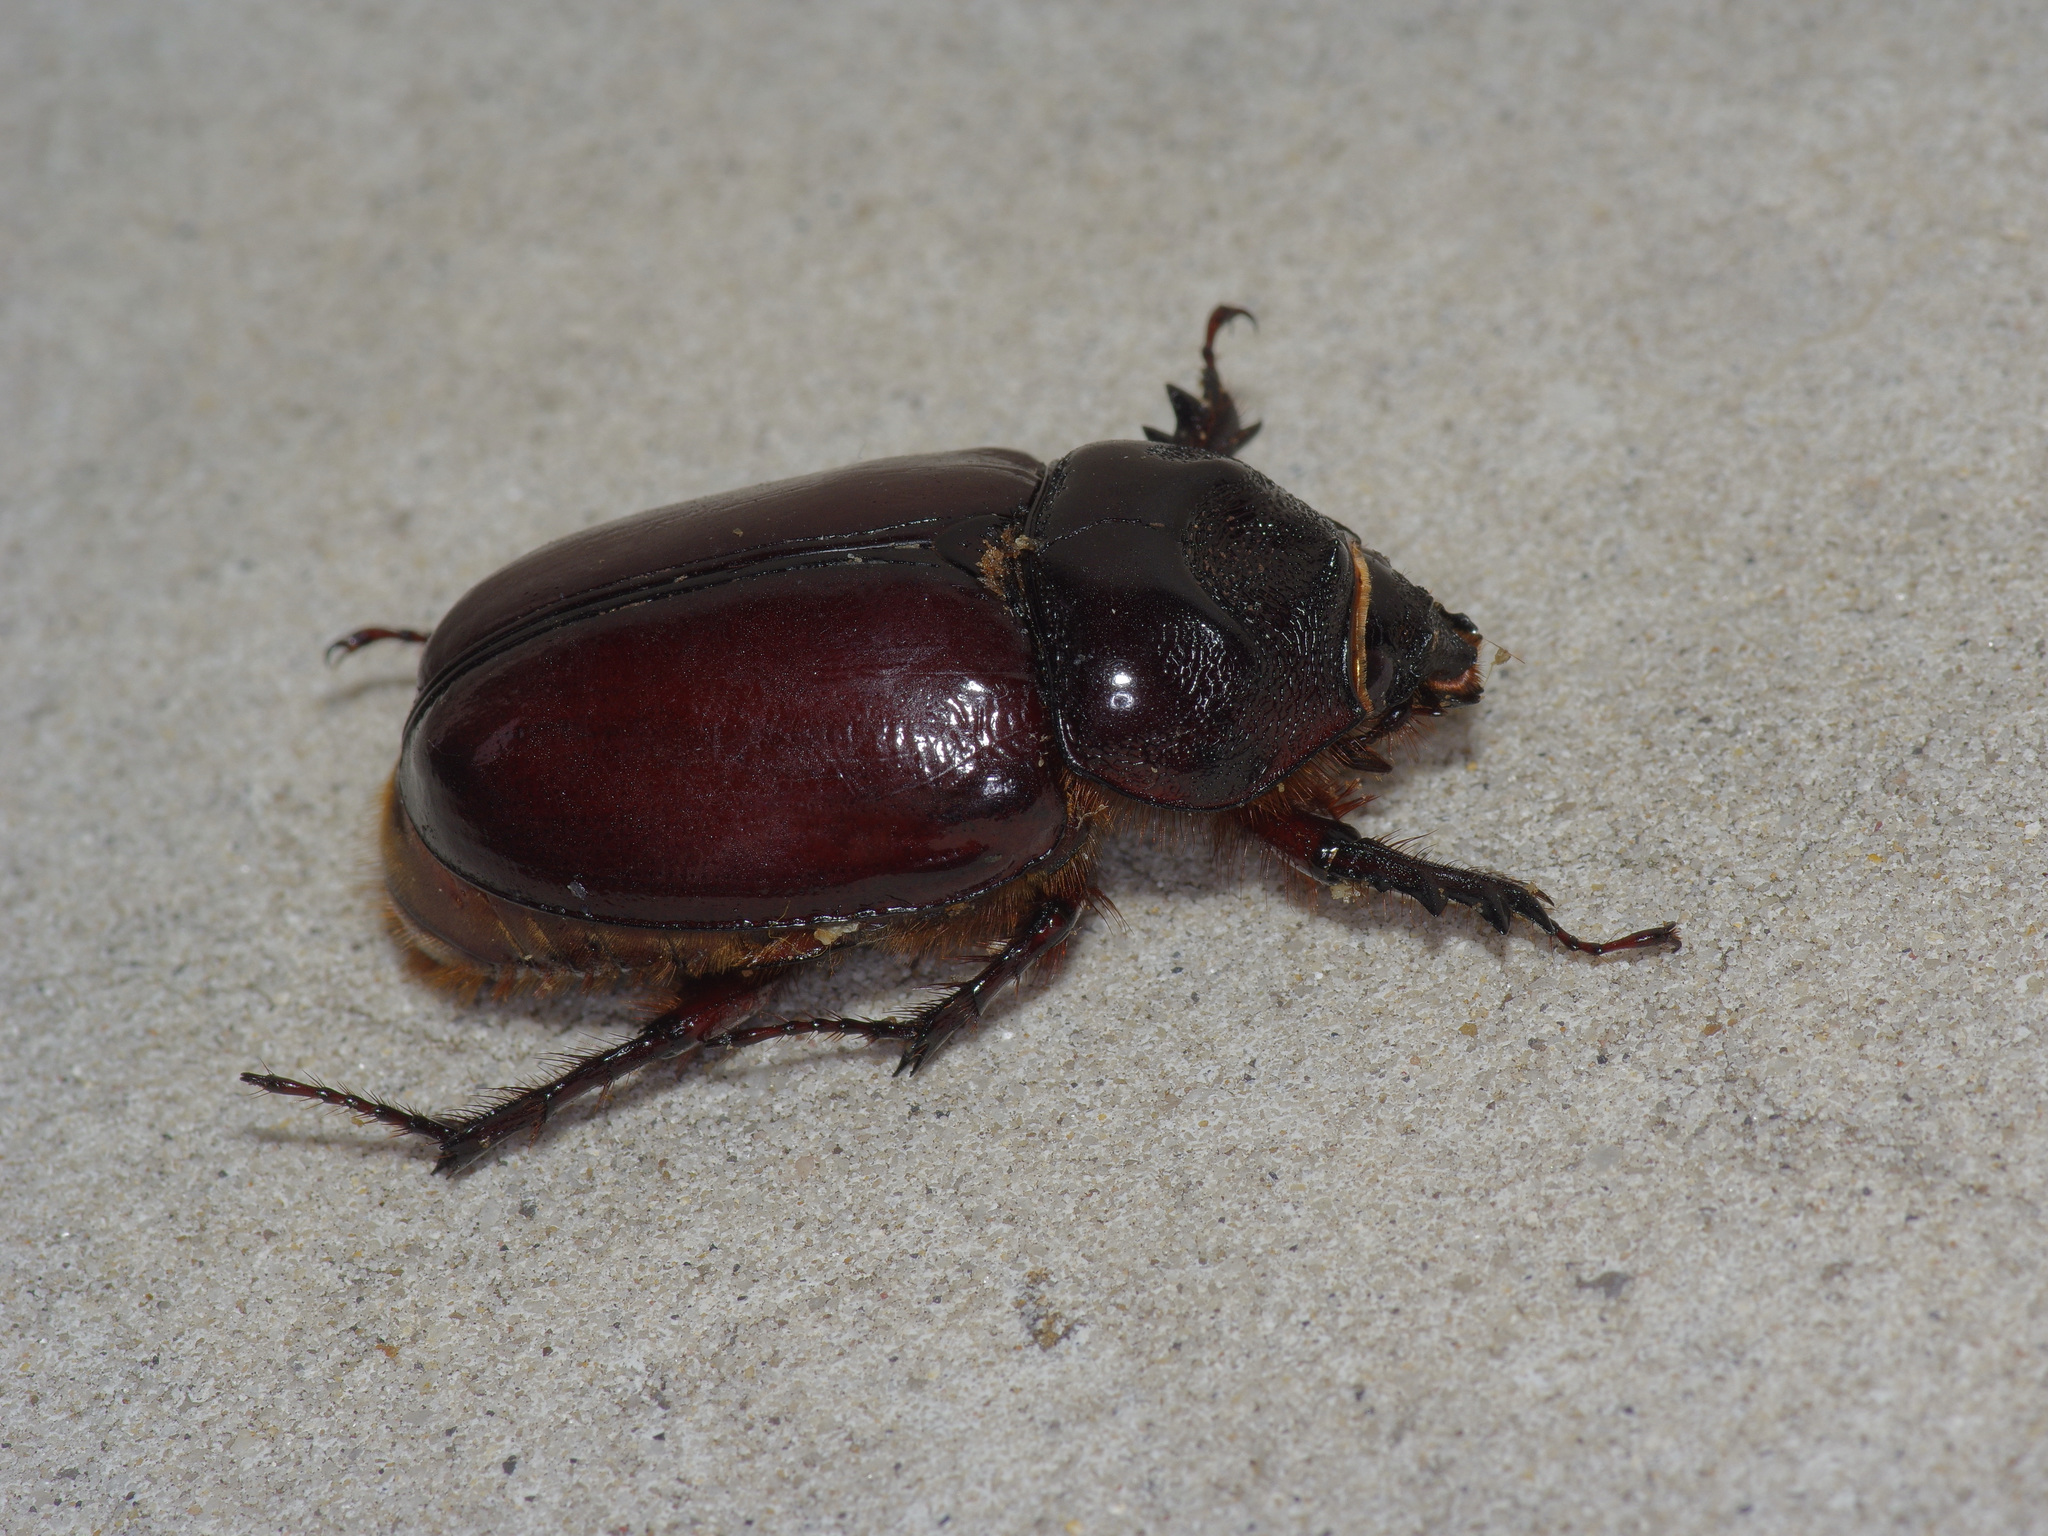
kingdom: Animalia
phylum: Arthropoda
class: Insecta
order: Coleoptera
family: Scarabaeidae
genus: Strategus
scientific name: Strategus aloeus
